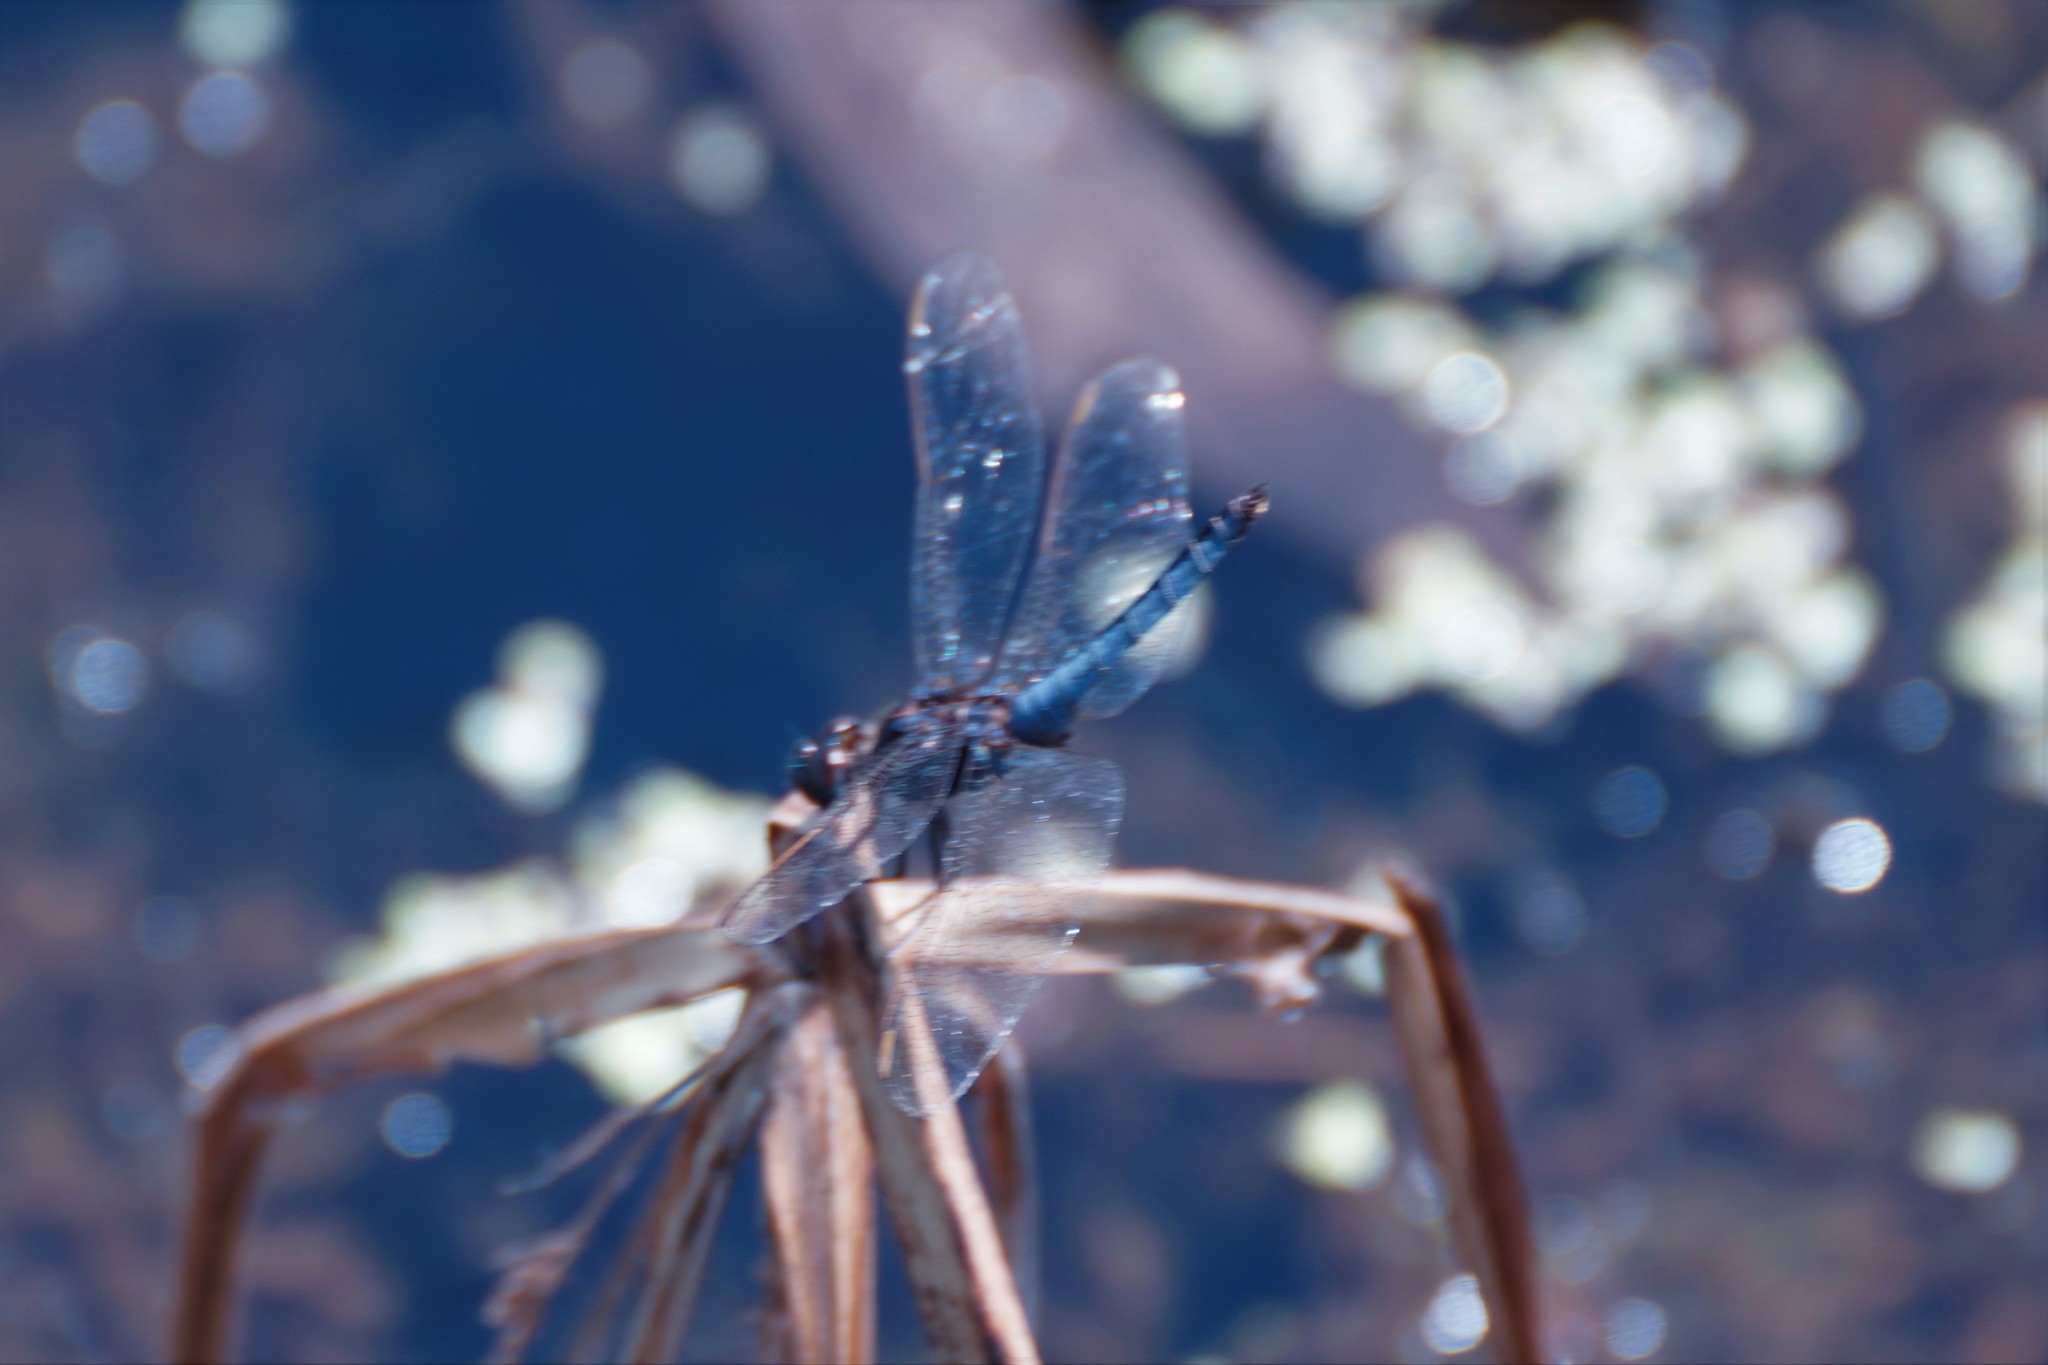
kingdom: Animalia
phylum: Arthropoda
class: Insecta
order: Odonata
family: Libellulidae
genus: Crocothemis
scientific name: Crocothemis nigrifrons
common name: Black-headed skimmer
